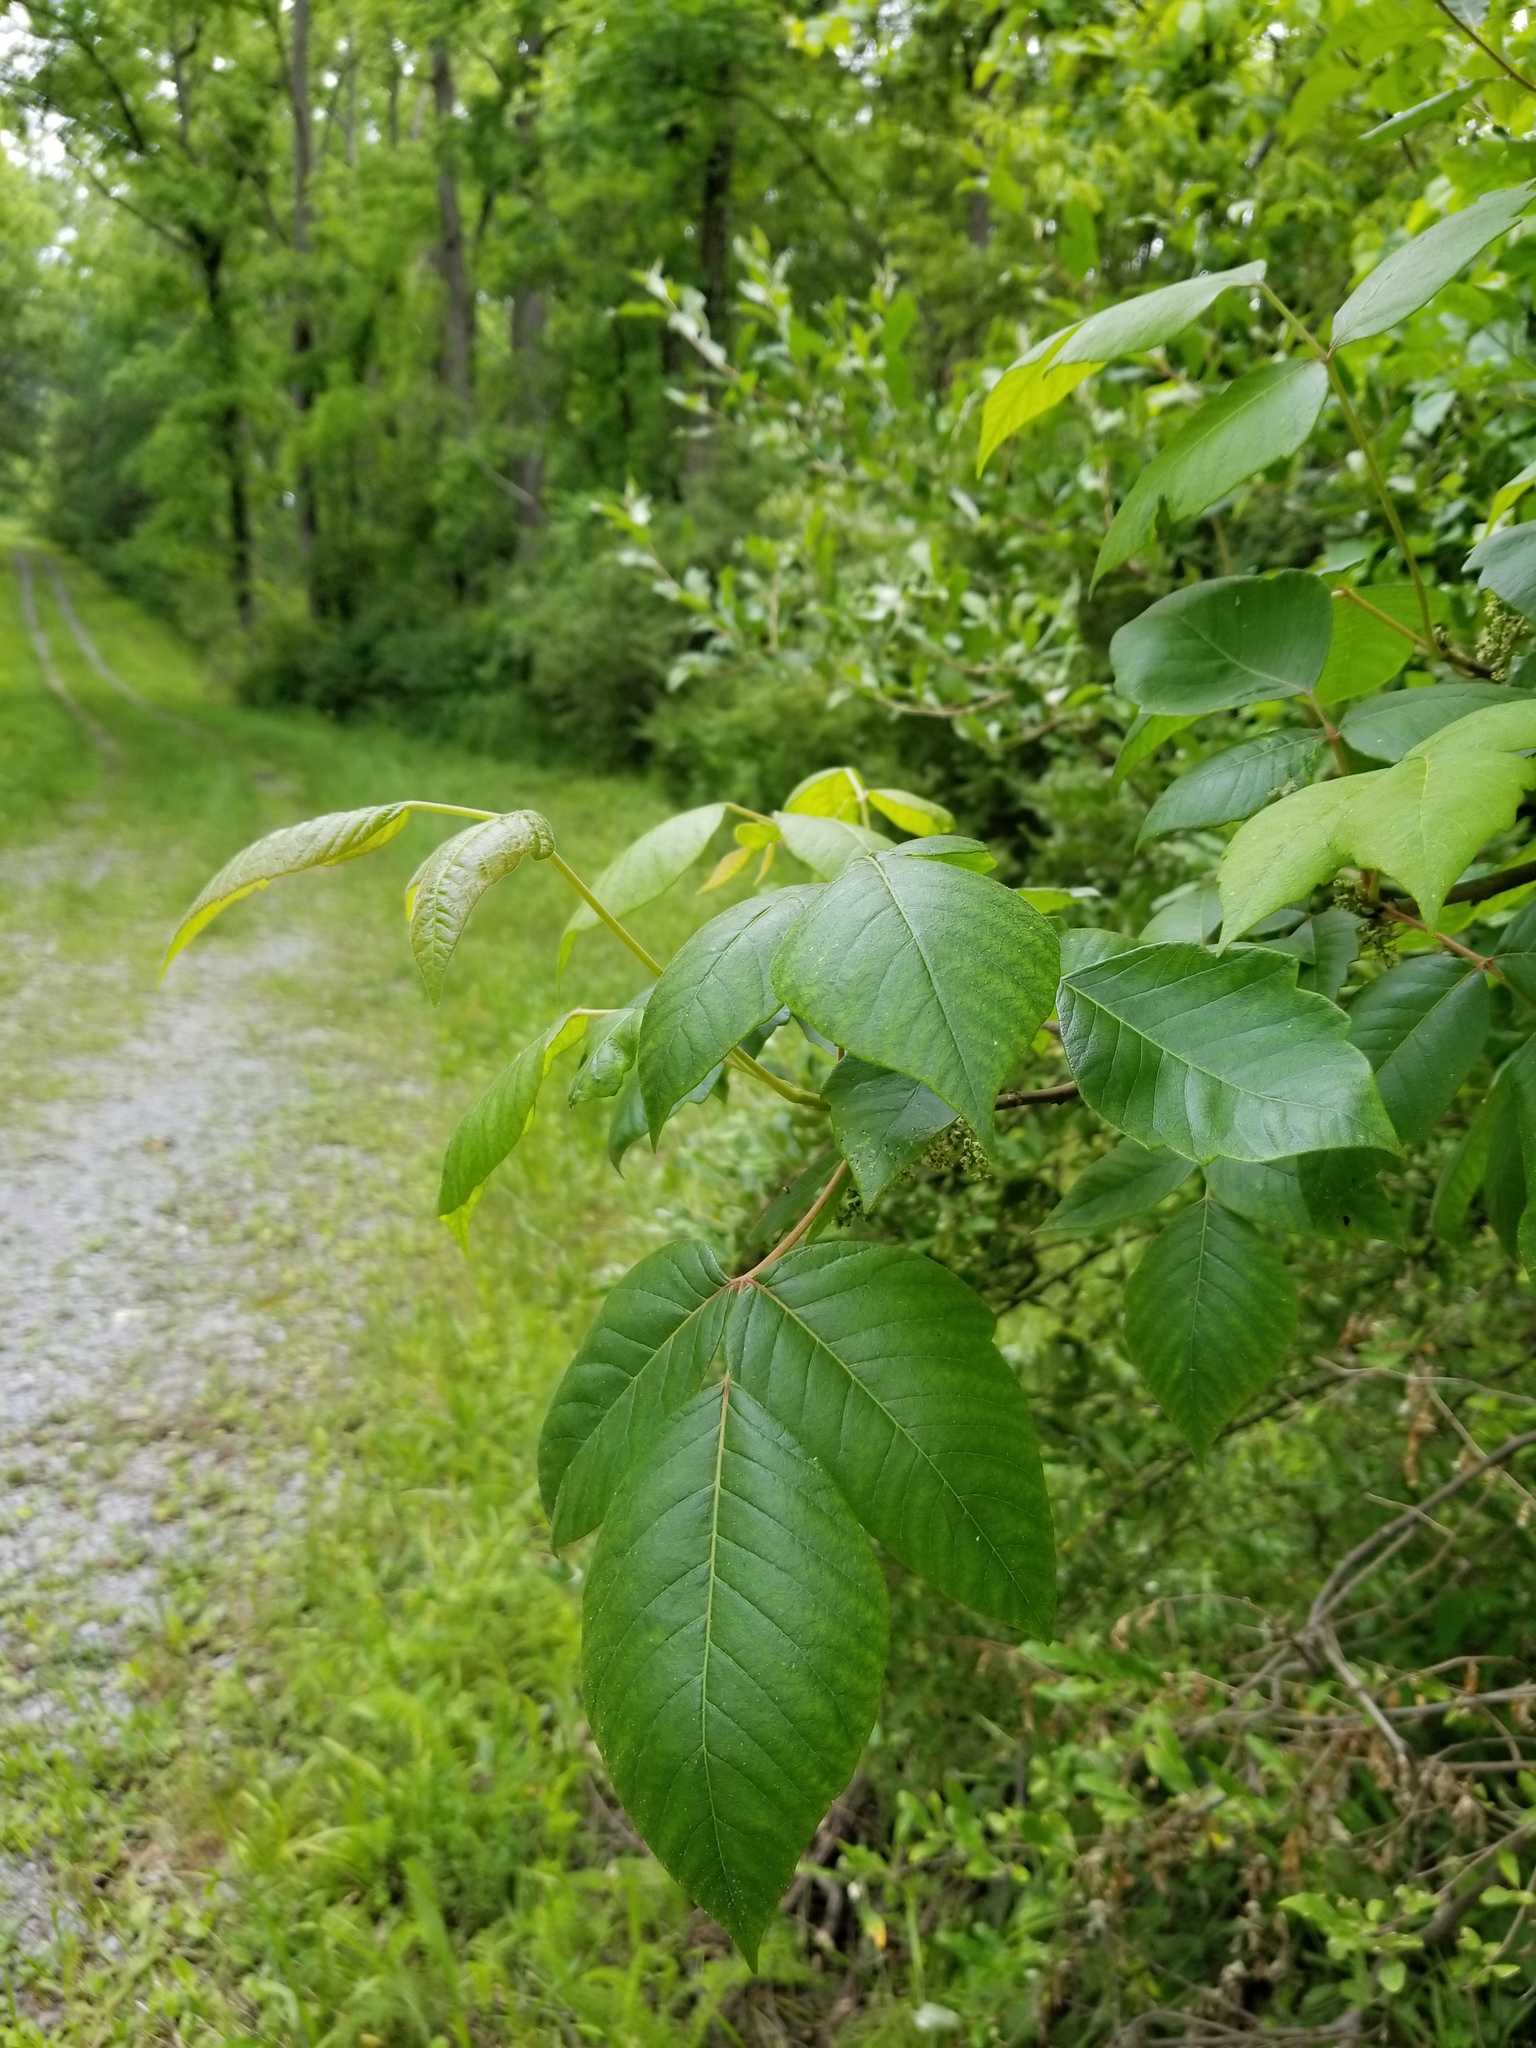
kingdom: Plantae
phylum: Tracheophyta
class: Magnoliopsida
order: Sapindales
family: Anacardiaceae
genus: Toxicodendron
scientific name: Toxicodendron radicans
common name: Poison ivy
